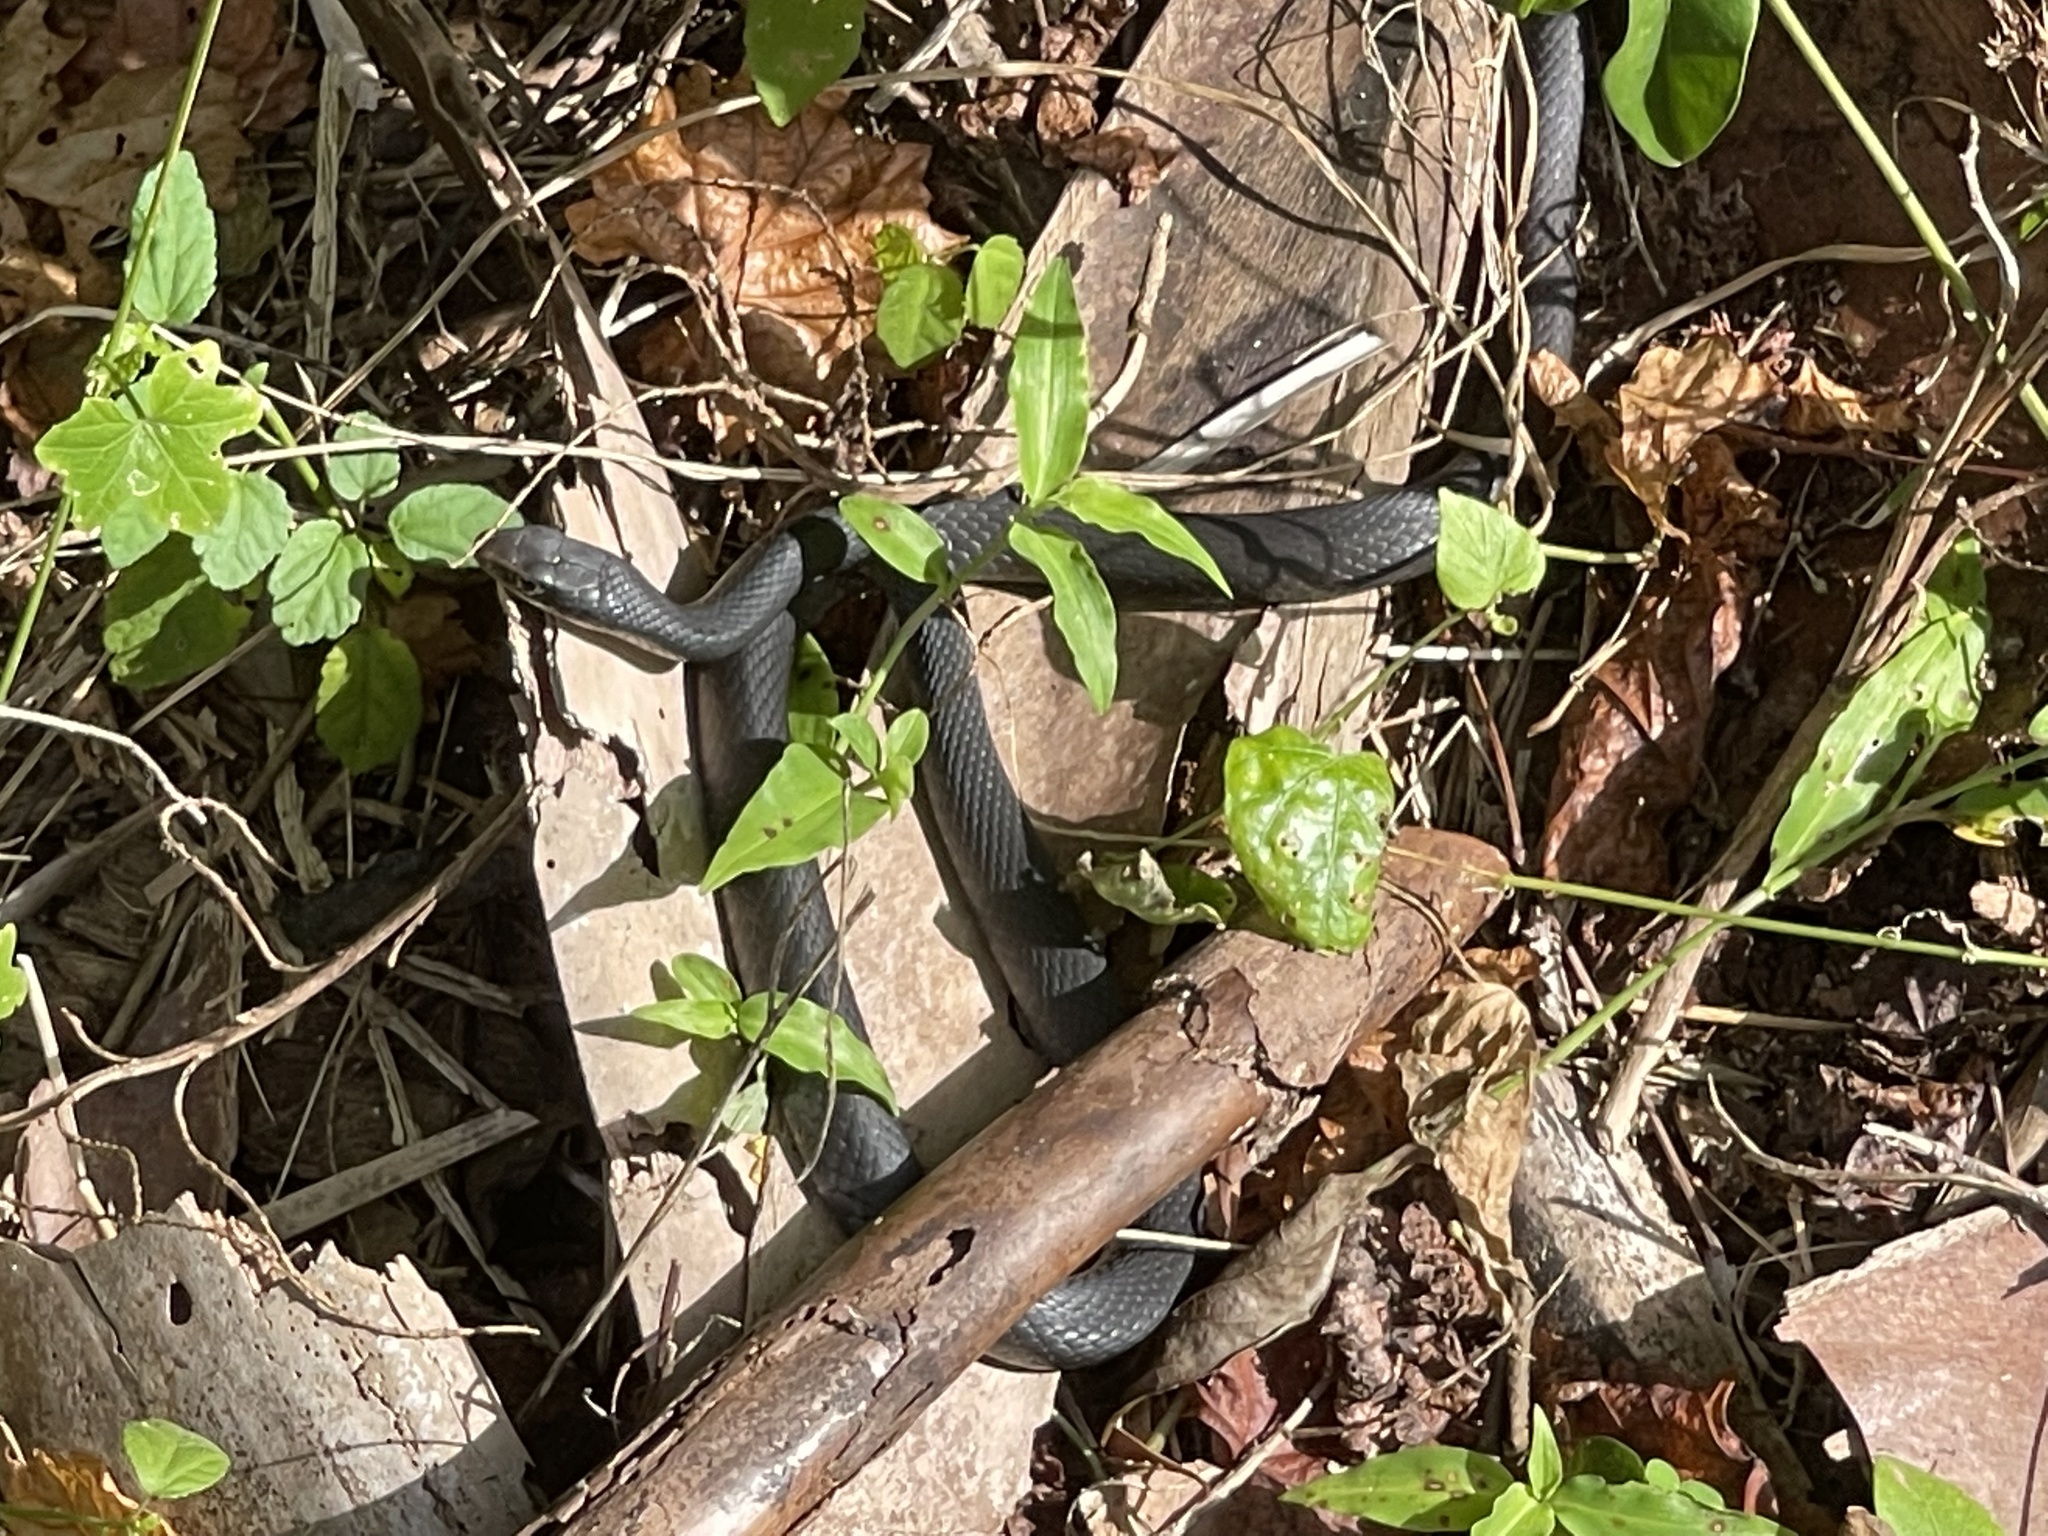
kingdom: Animalia
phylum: Chordata
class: Squamata
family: Colubridae
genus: Coluber
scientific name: Coluber constrictor
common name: Eastern racer
